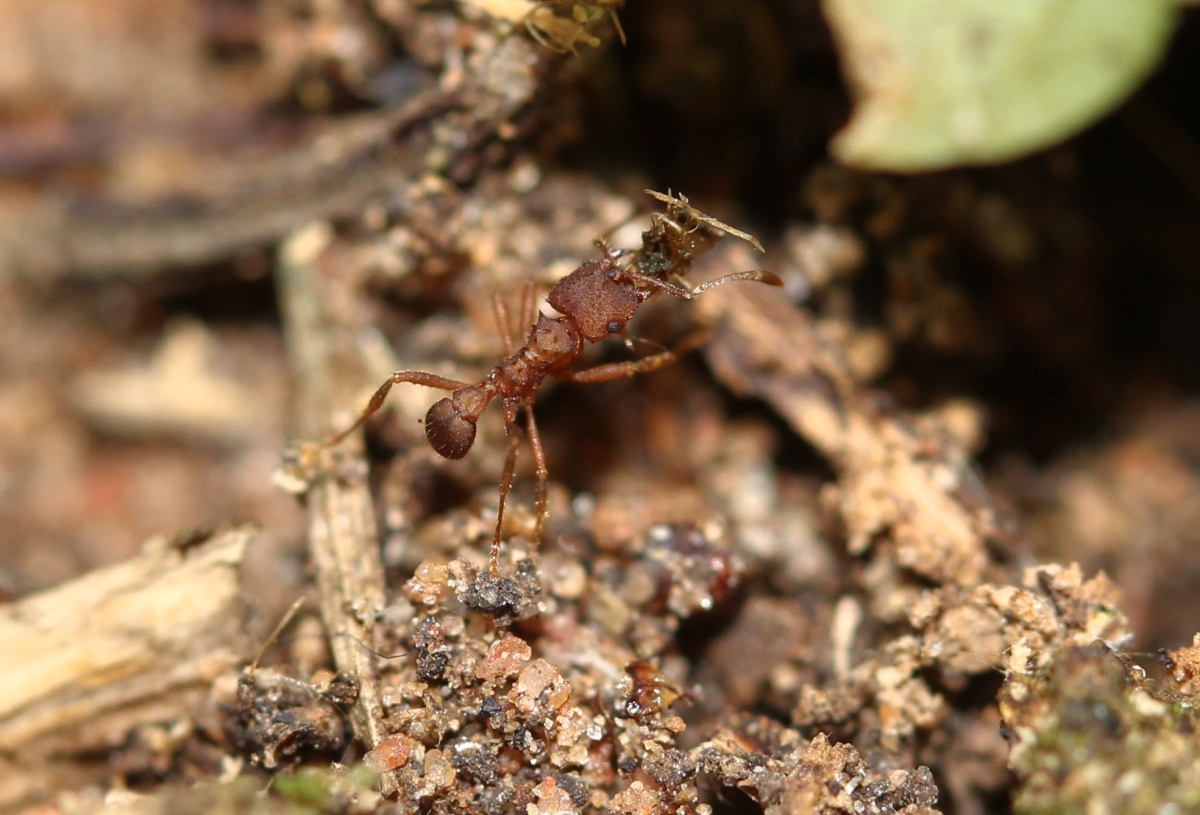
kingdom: Animalia
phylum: Arthropoda
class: Insecta
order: Hymenoptera
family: Formicidae
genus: Mycocepurus
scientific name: Mycocepurus
